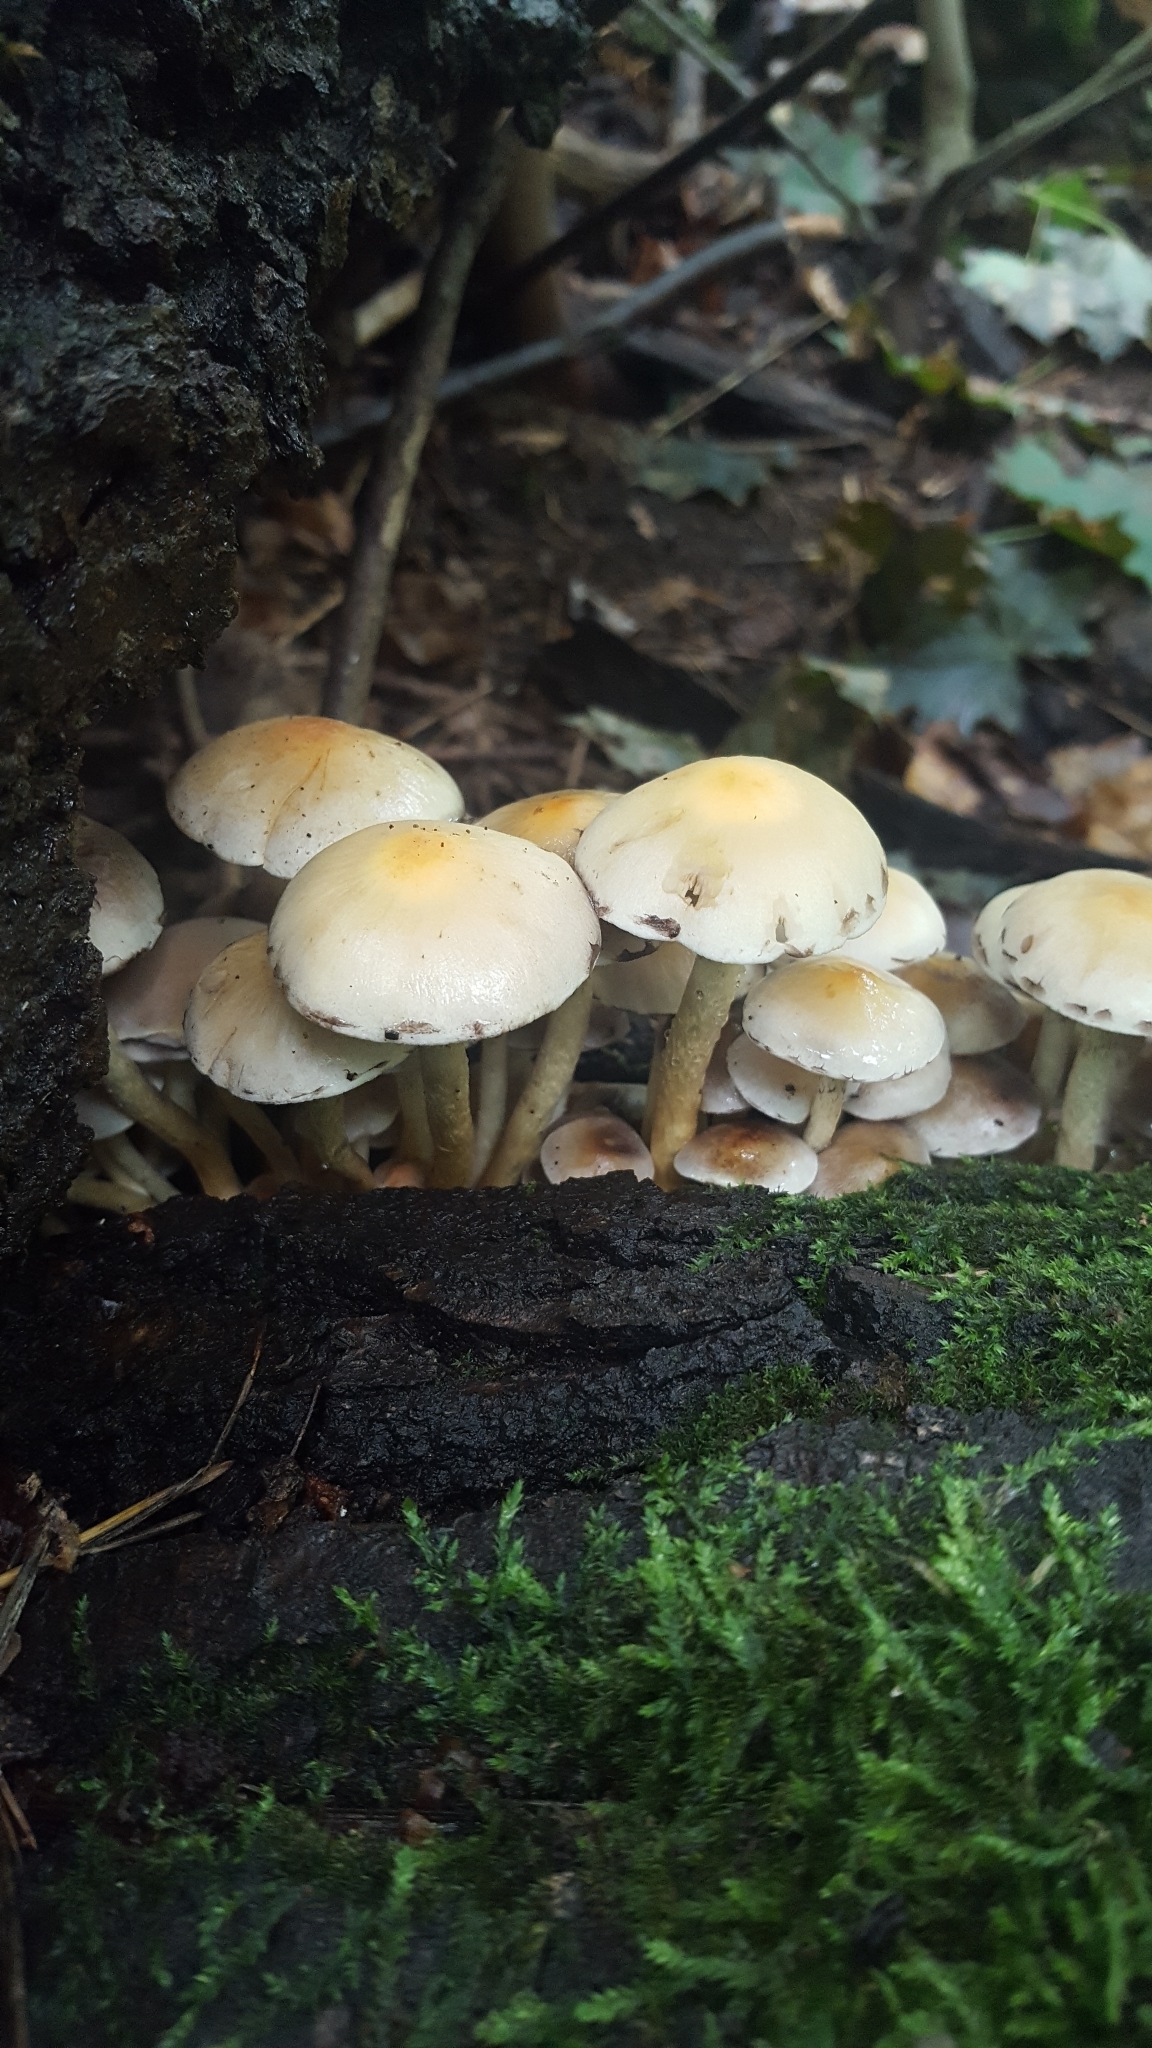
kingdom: Fungi
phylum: Basidiomycota
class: Agaricomycetes
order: Agaricales
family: Strophariaceae
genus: Hypholoma
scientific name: Hypholoma fasciculare
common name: Sulphur tuft
